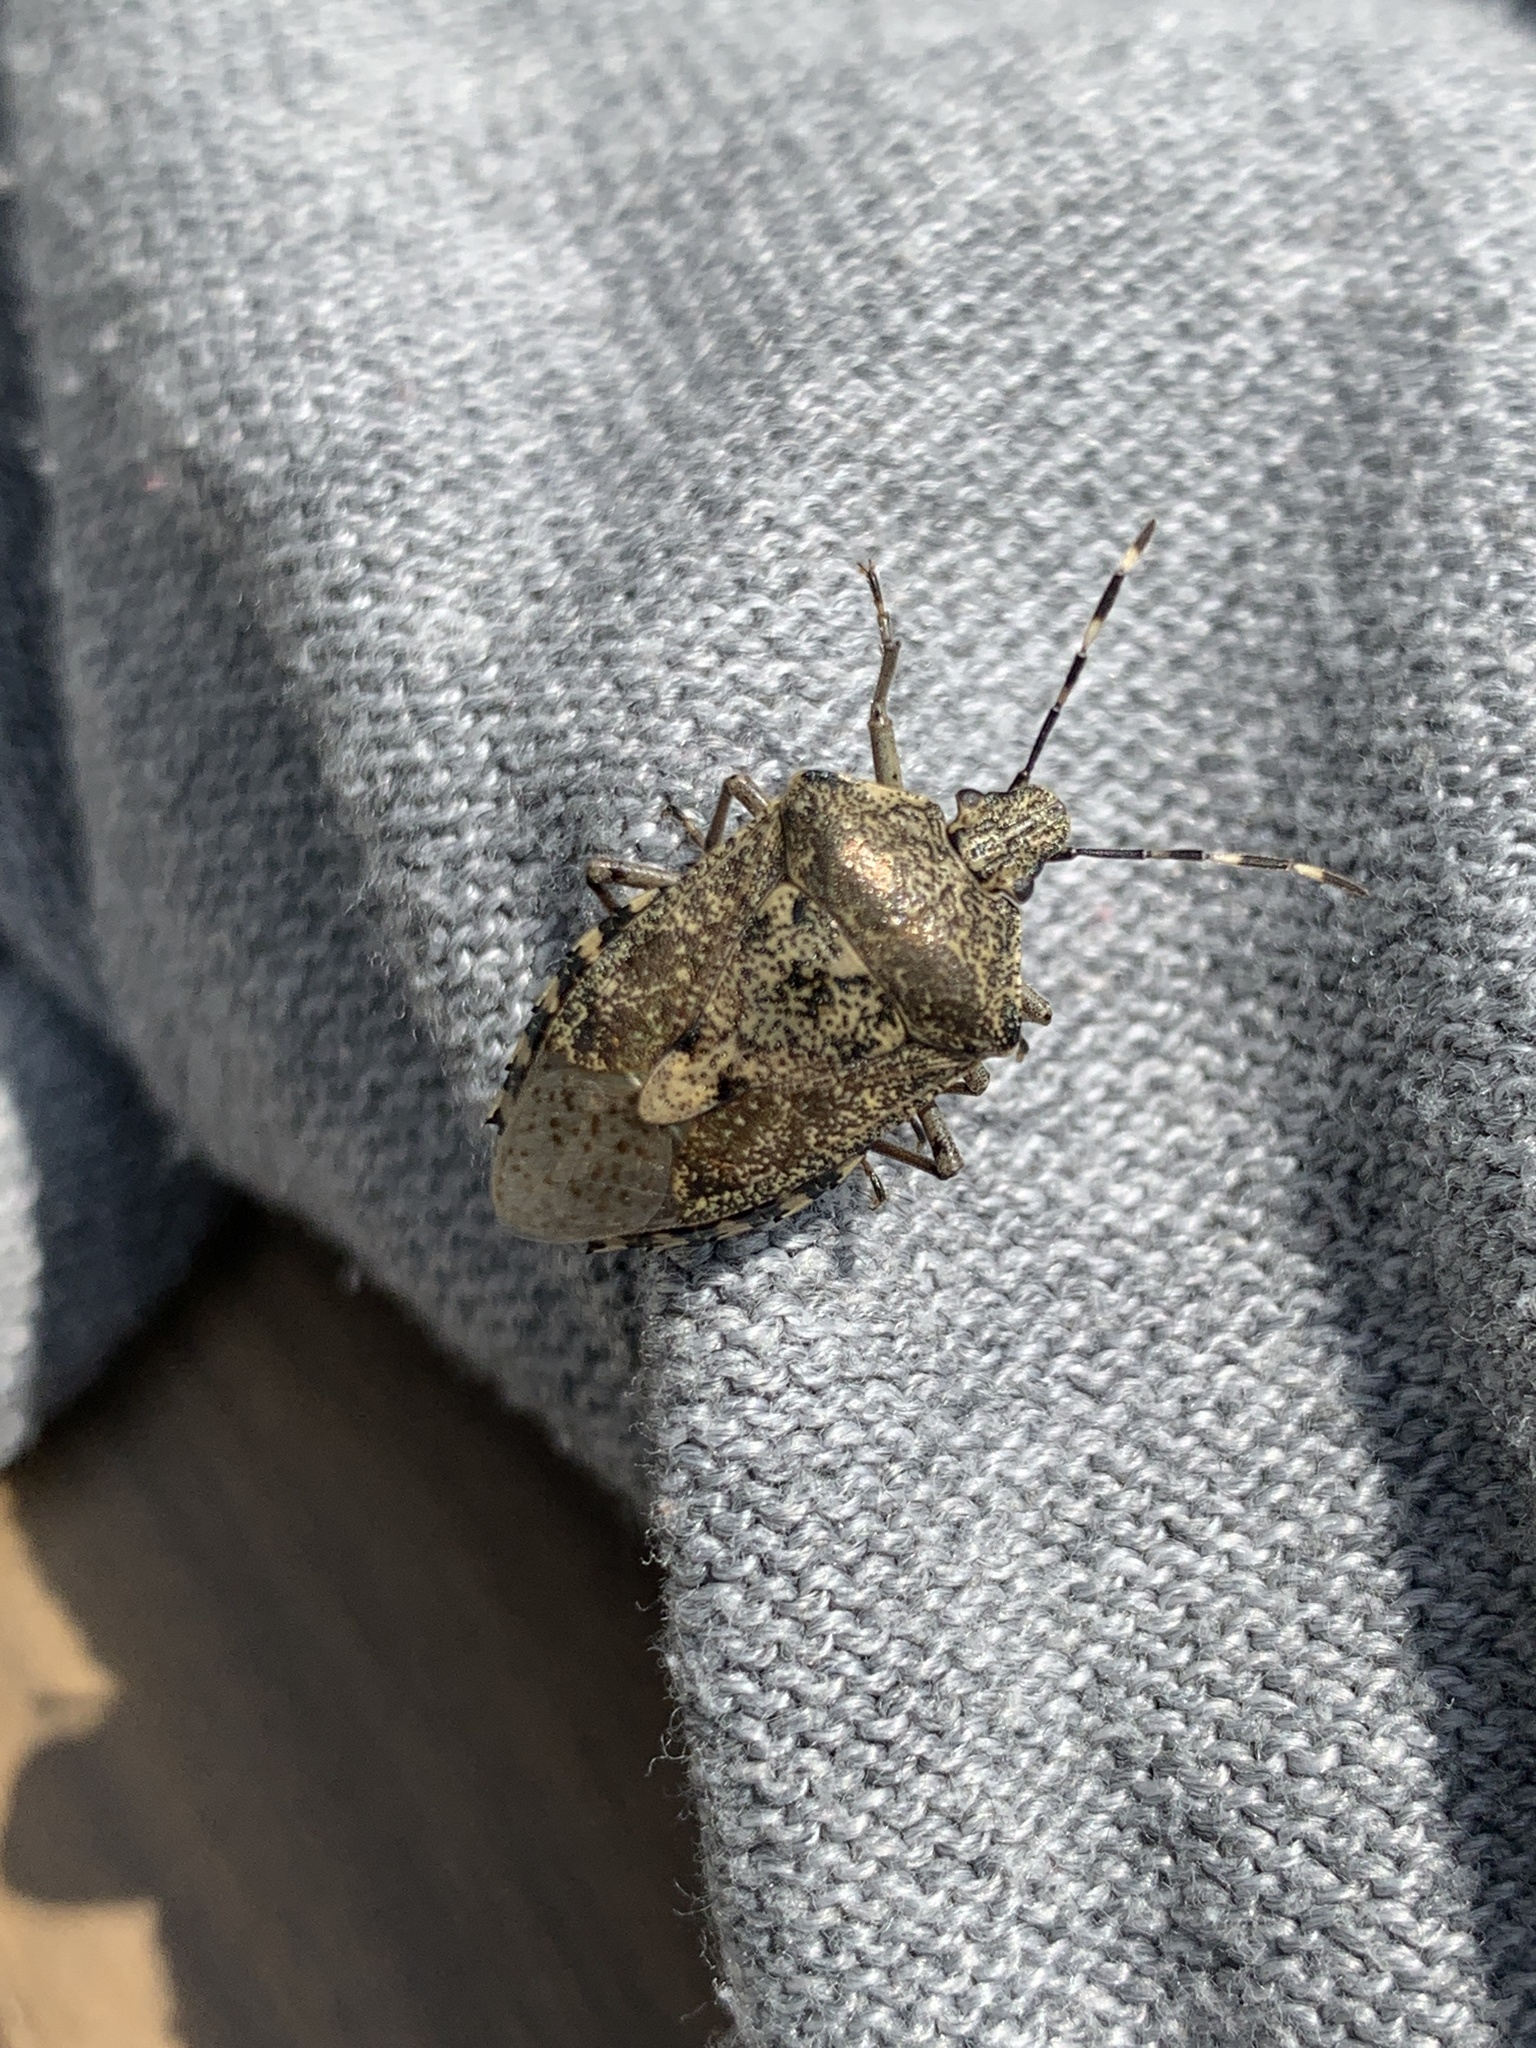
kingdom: Animalia
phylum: Arthropoda
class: Insecta
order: Hemiptera
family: Pentatomidae
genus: Rhaphigaster
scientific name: Rhaphigaster nebulosa
